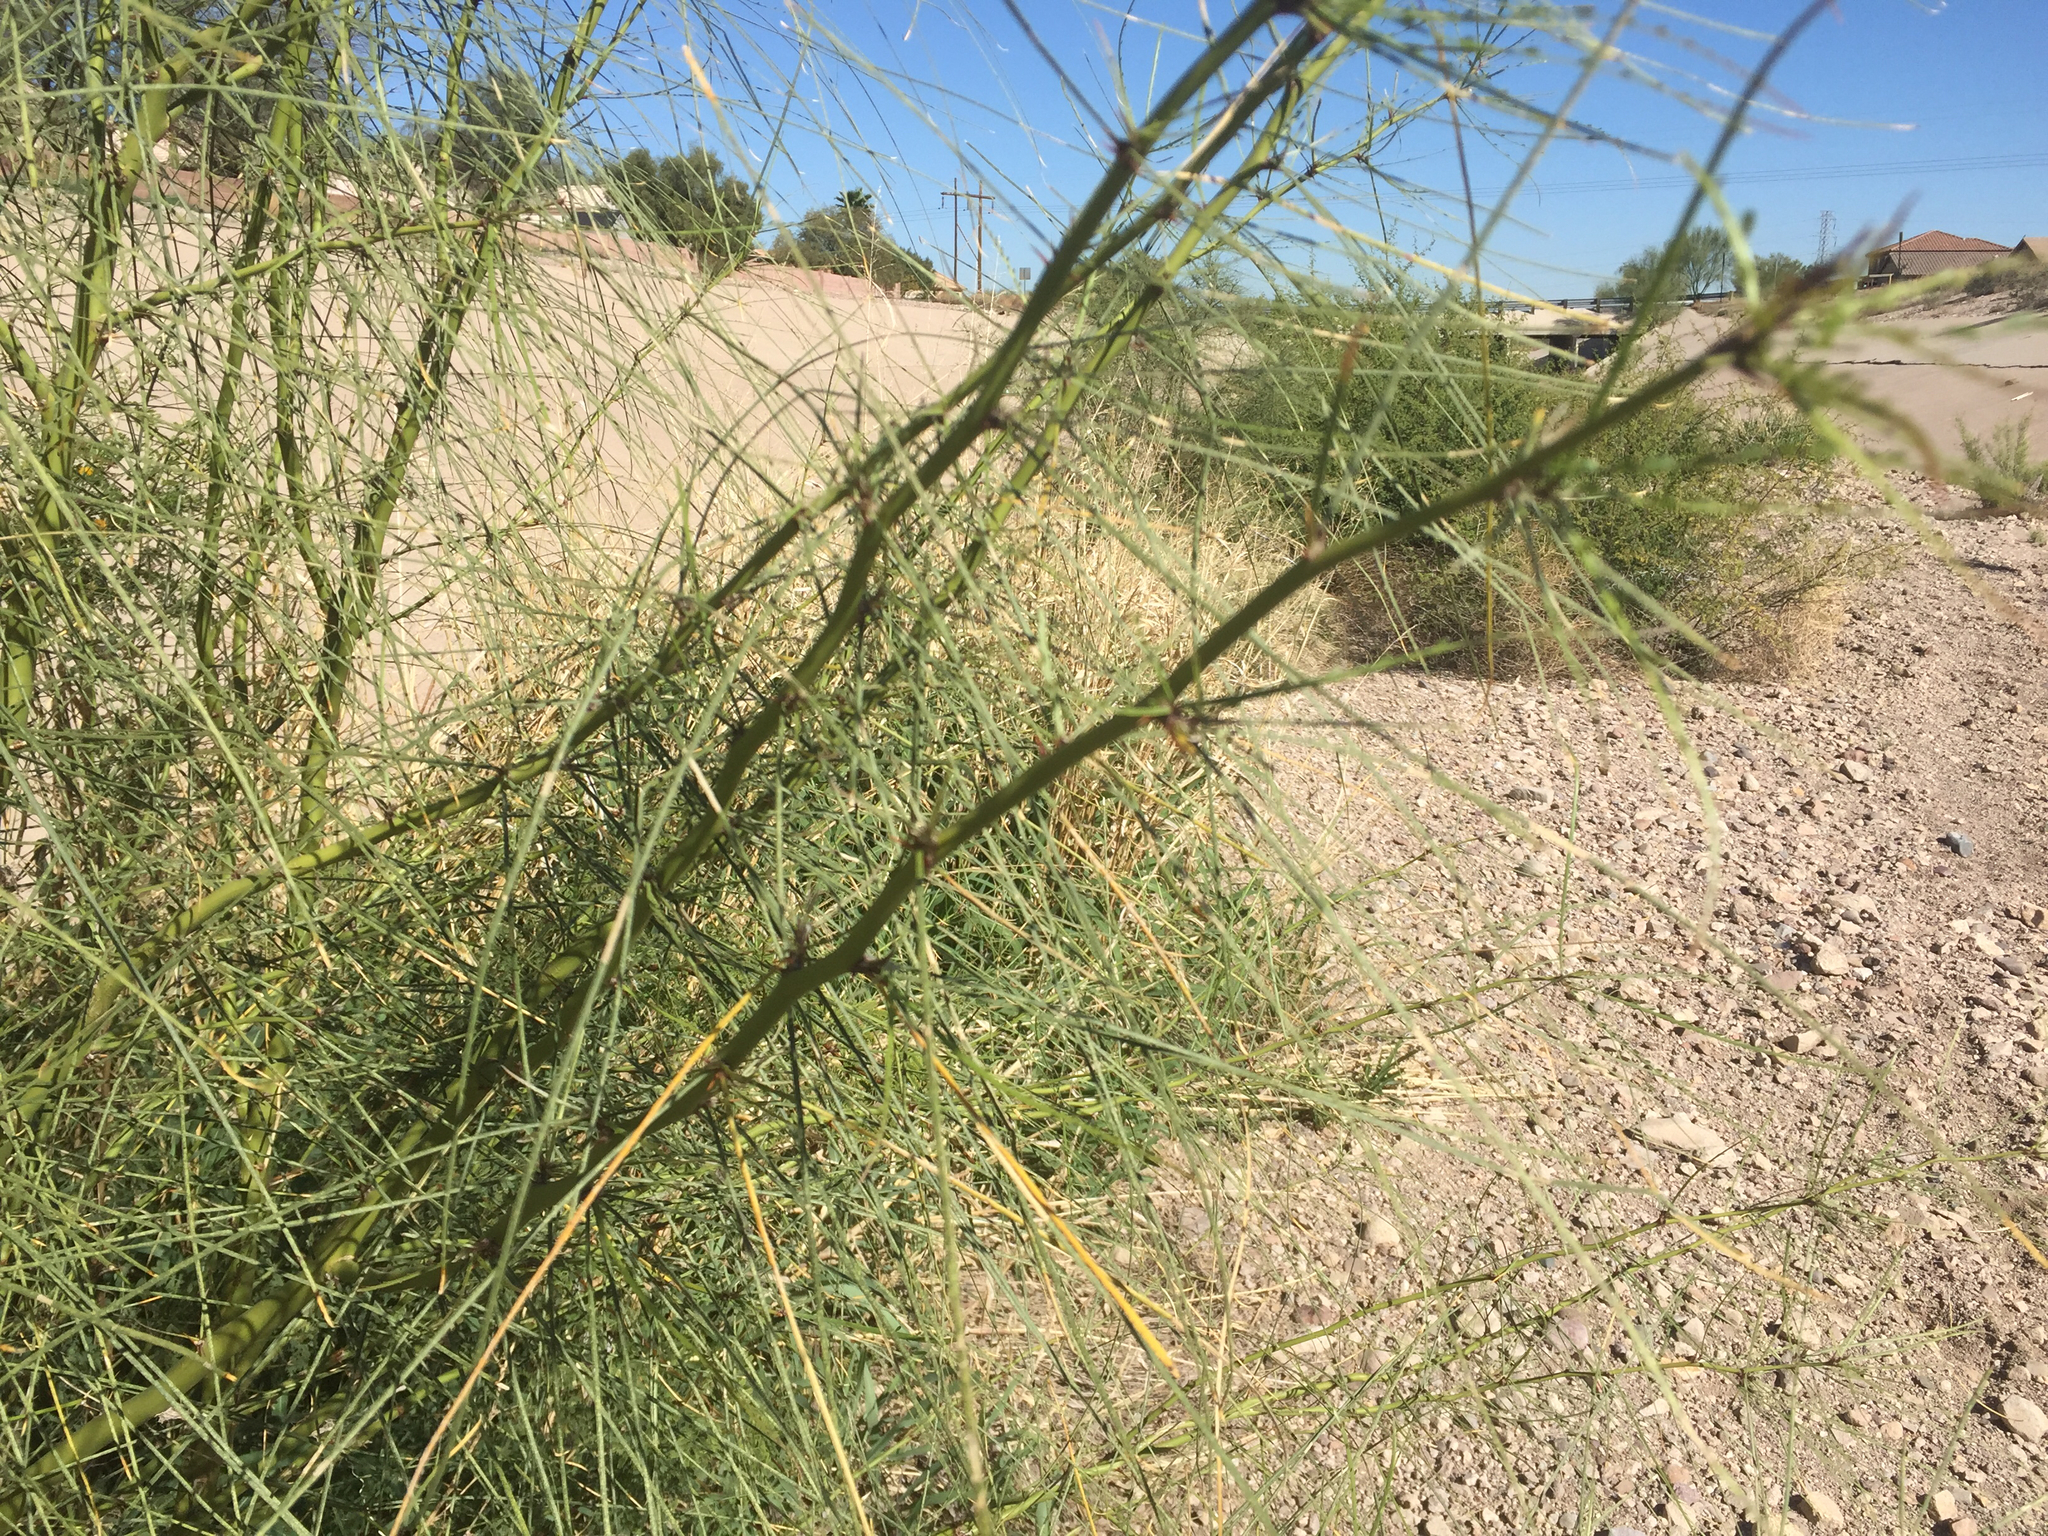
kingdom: Plantae
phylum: Tracheophyta
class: Magnoliopsida
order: Fabales
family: Fabaceae
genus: Parkinsonia
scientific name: Parkinsonia aculeata
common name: Jerusalem thorn
